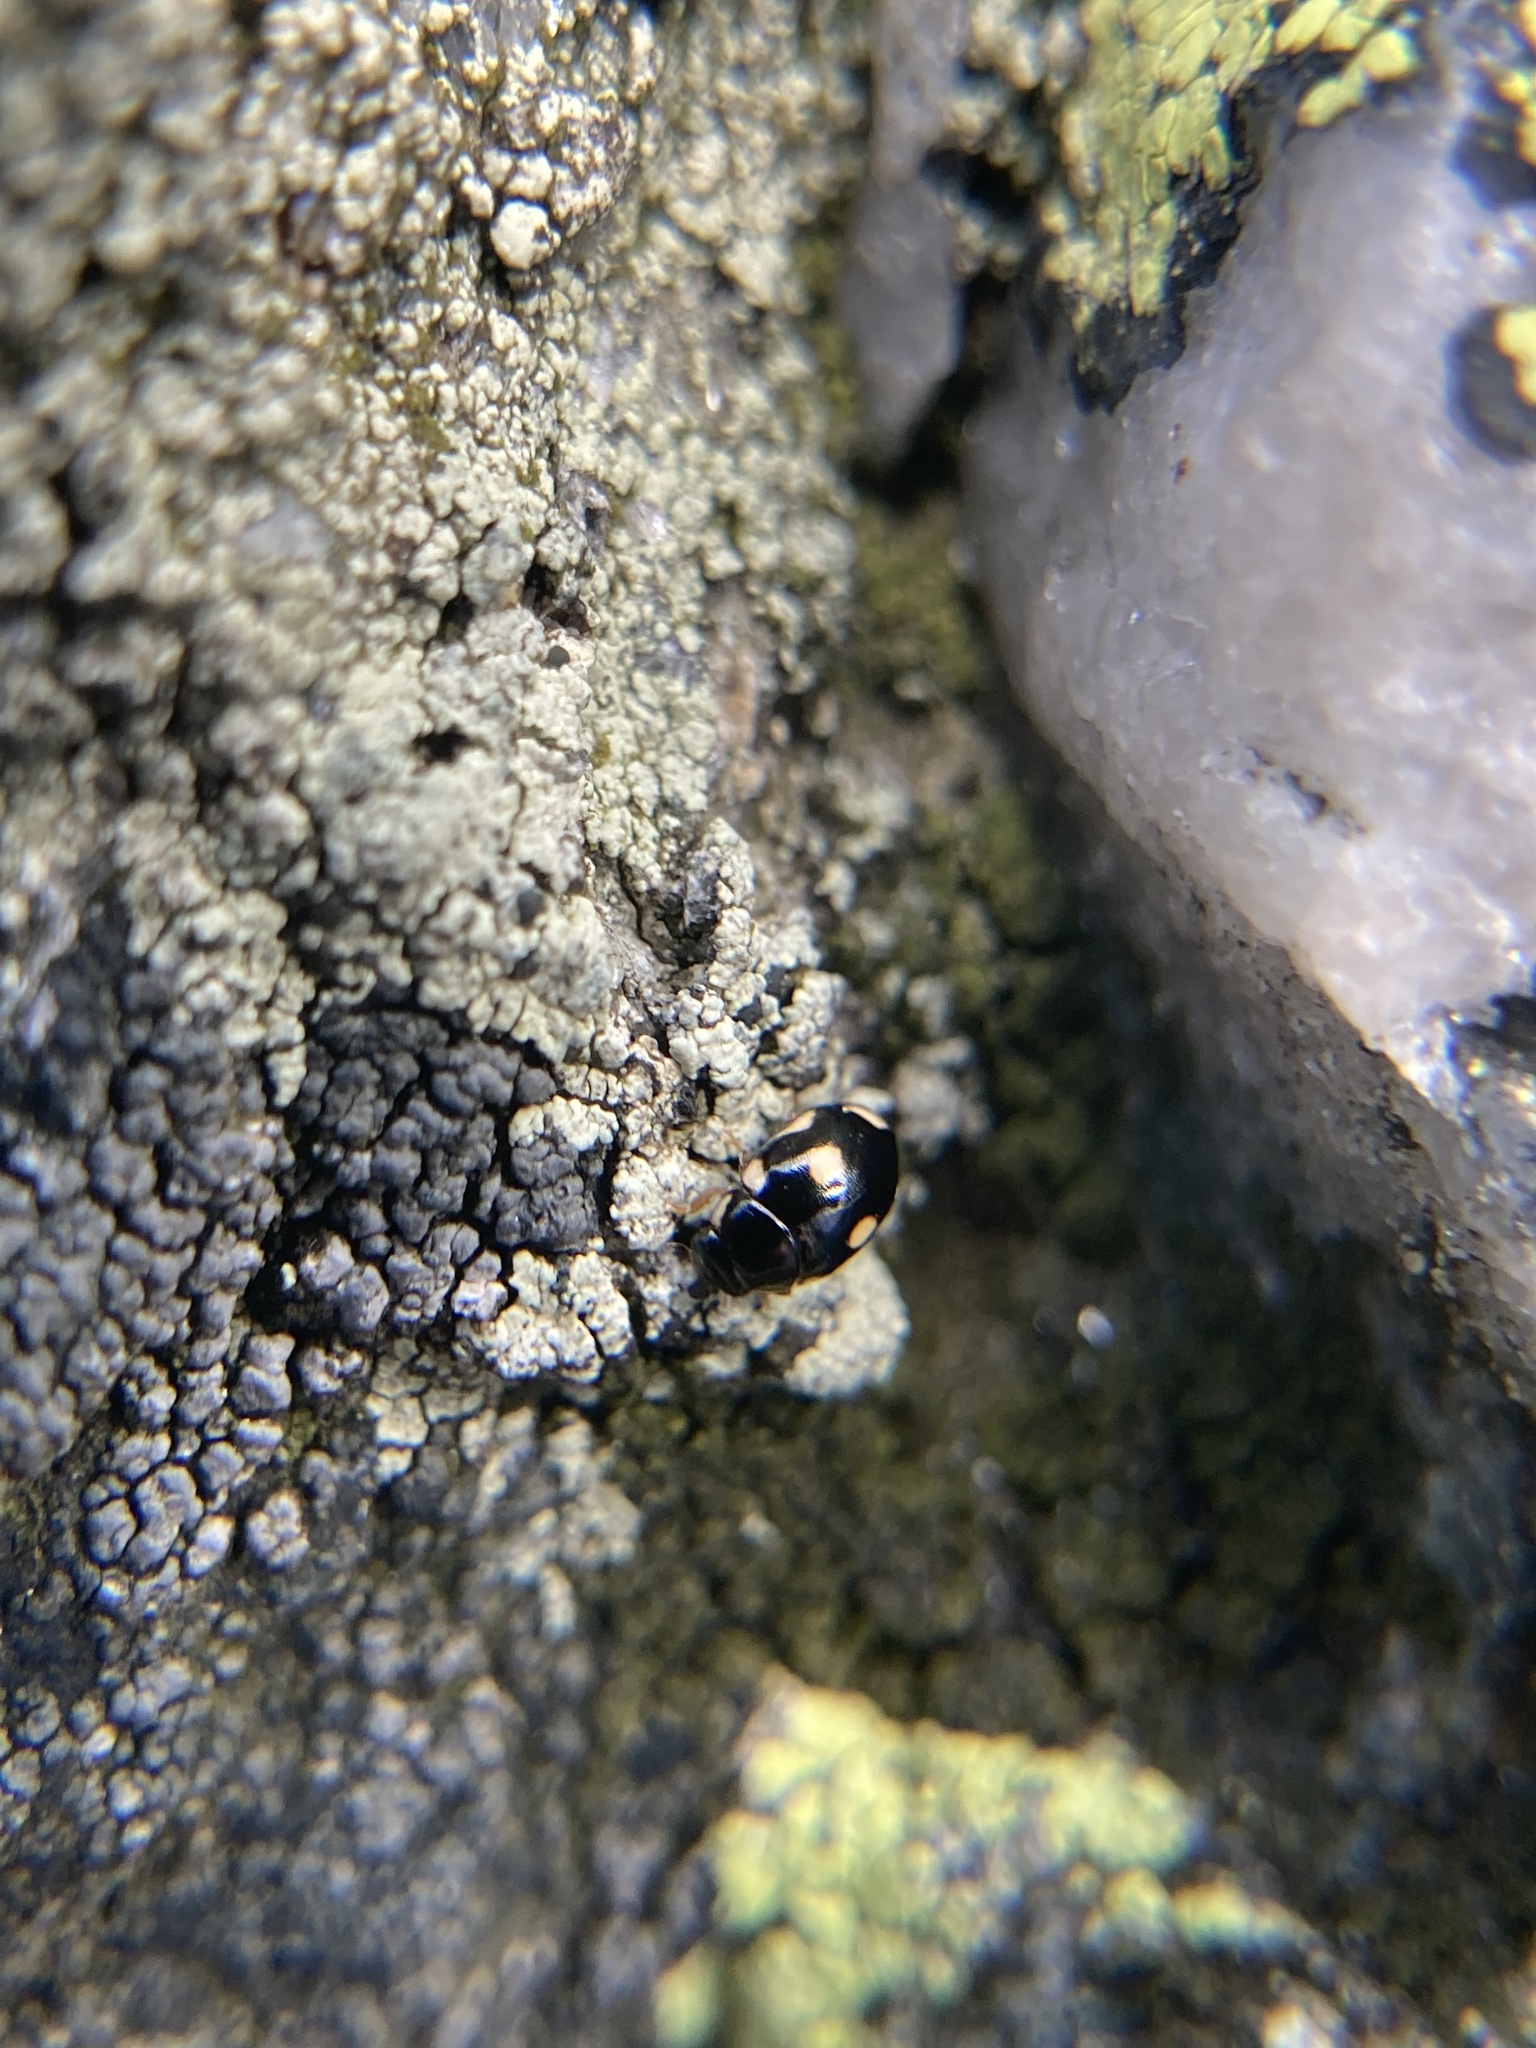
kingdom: Animalia
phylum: Arthropoda
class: Insecta
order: Coleoptera
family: Coccinellidae
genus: Hyperaspis
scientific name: Hyperaspis octavia
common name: Octavia lady beetle
